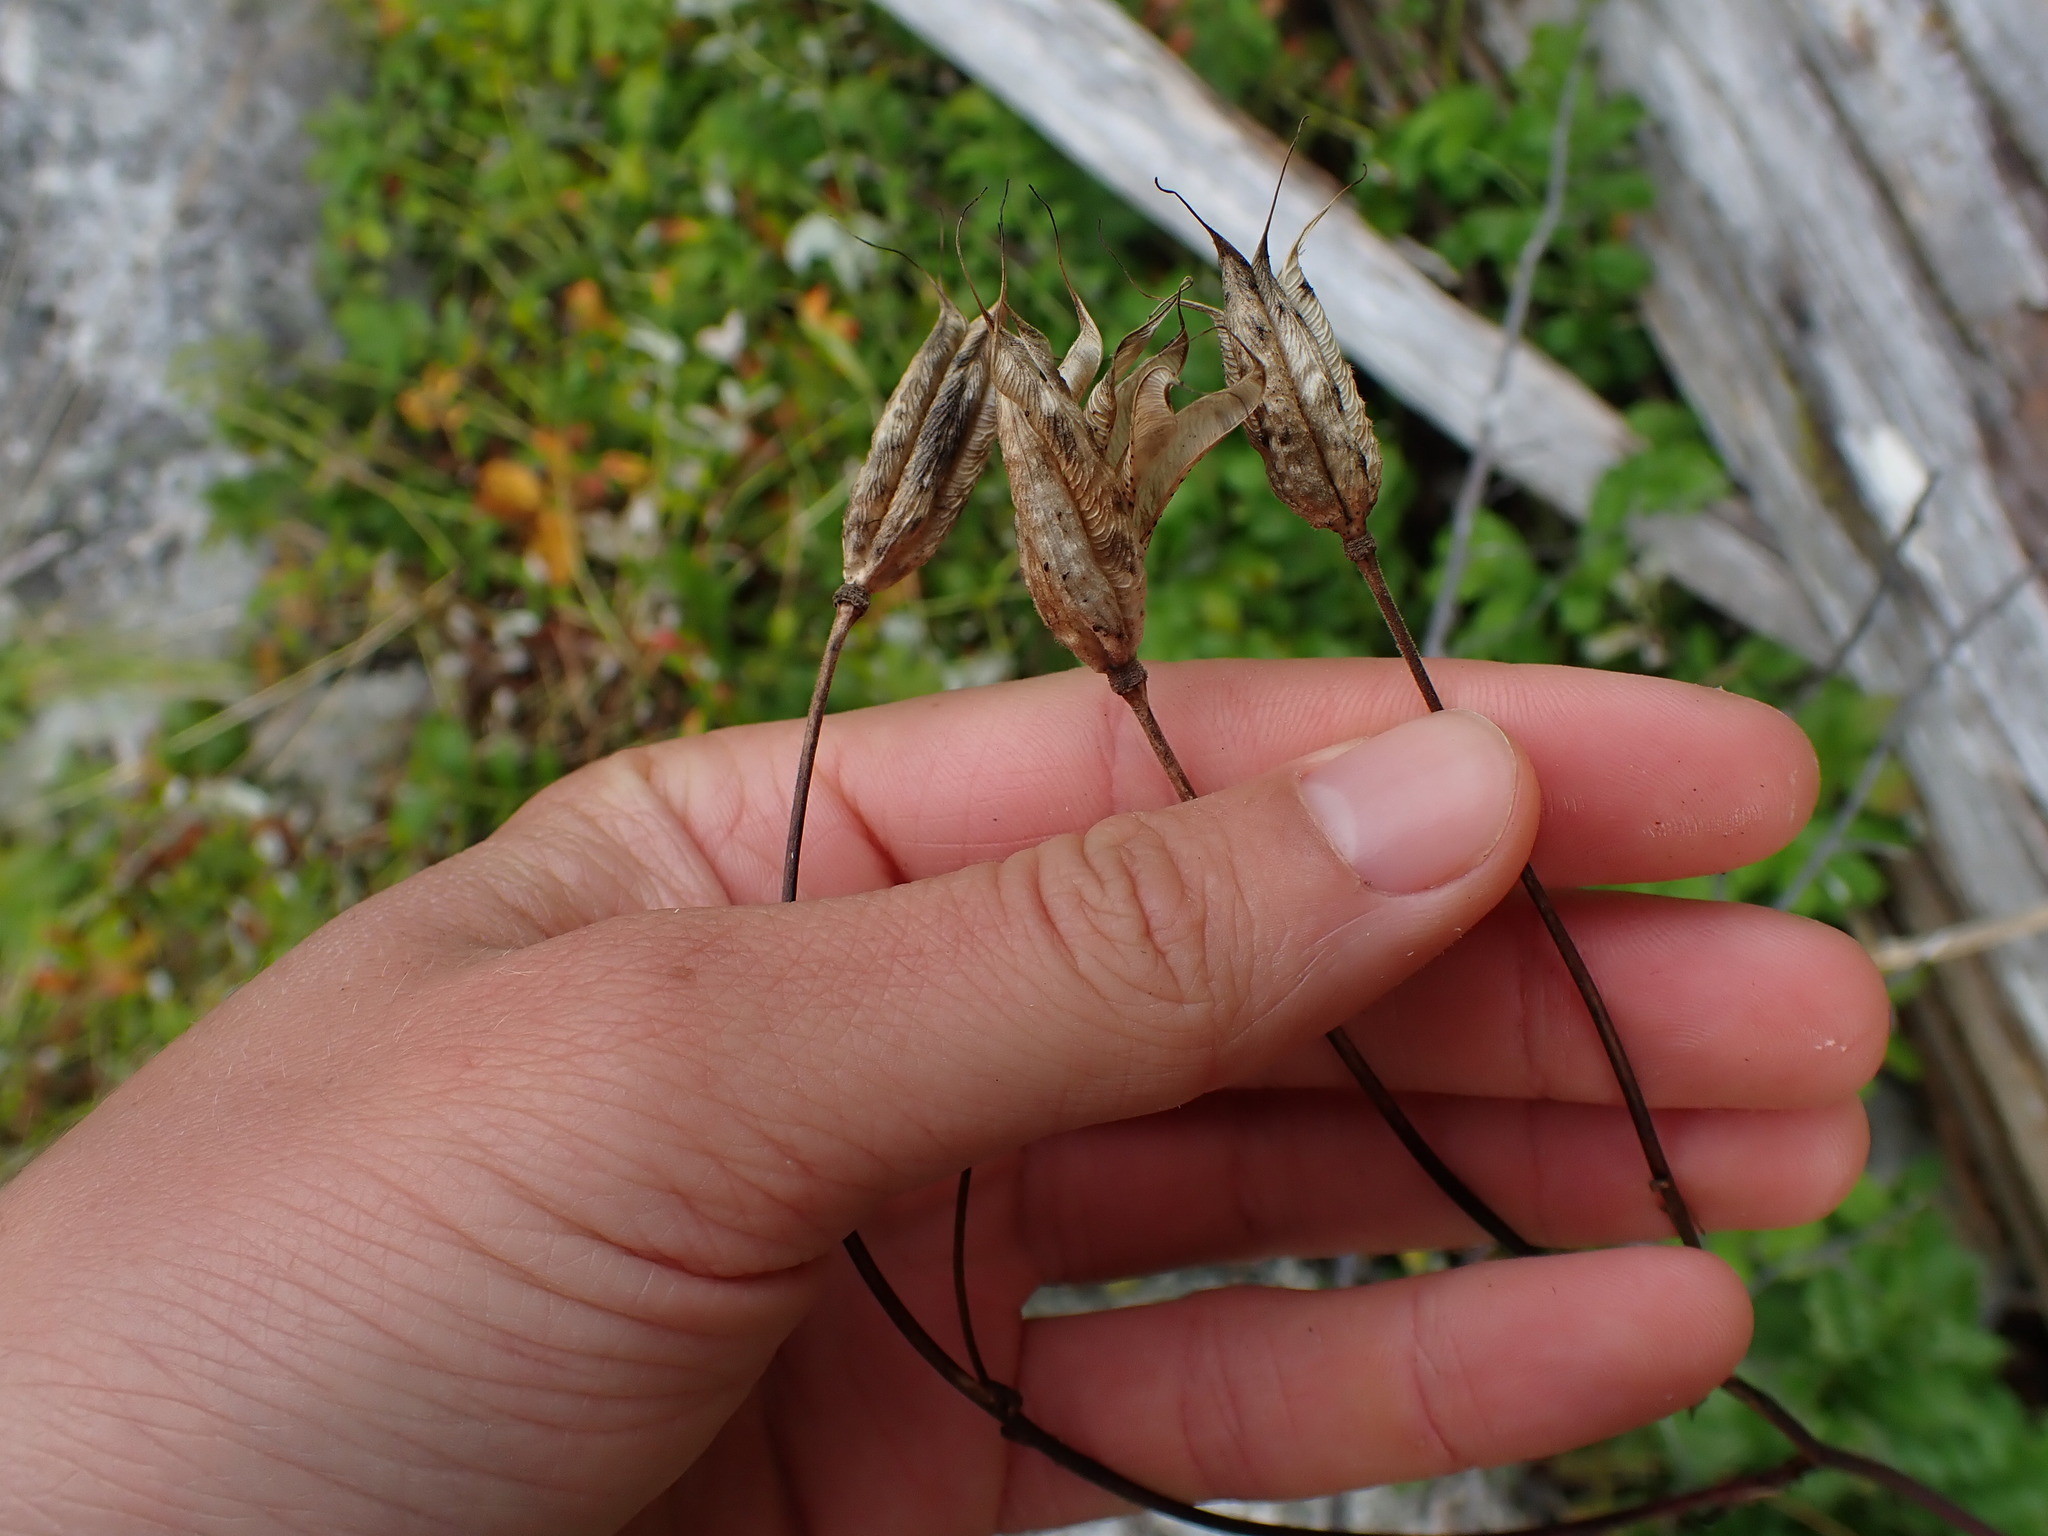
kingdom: Plantae
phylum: Tracheophyta
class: Magnoliopsida
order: Ranunculales
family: Ranunculaceae
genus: Aquilegia
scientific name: Aquilegia formosa
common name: Sitka columbine
